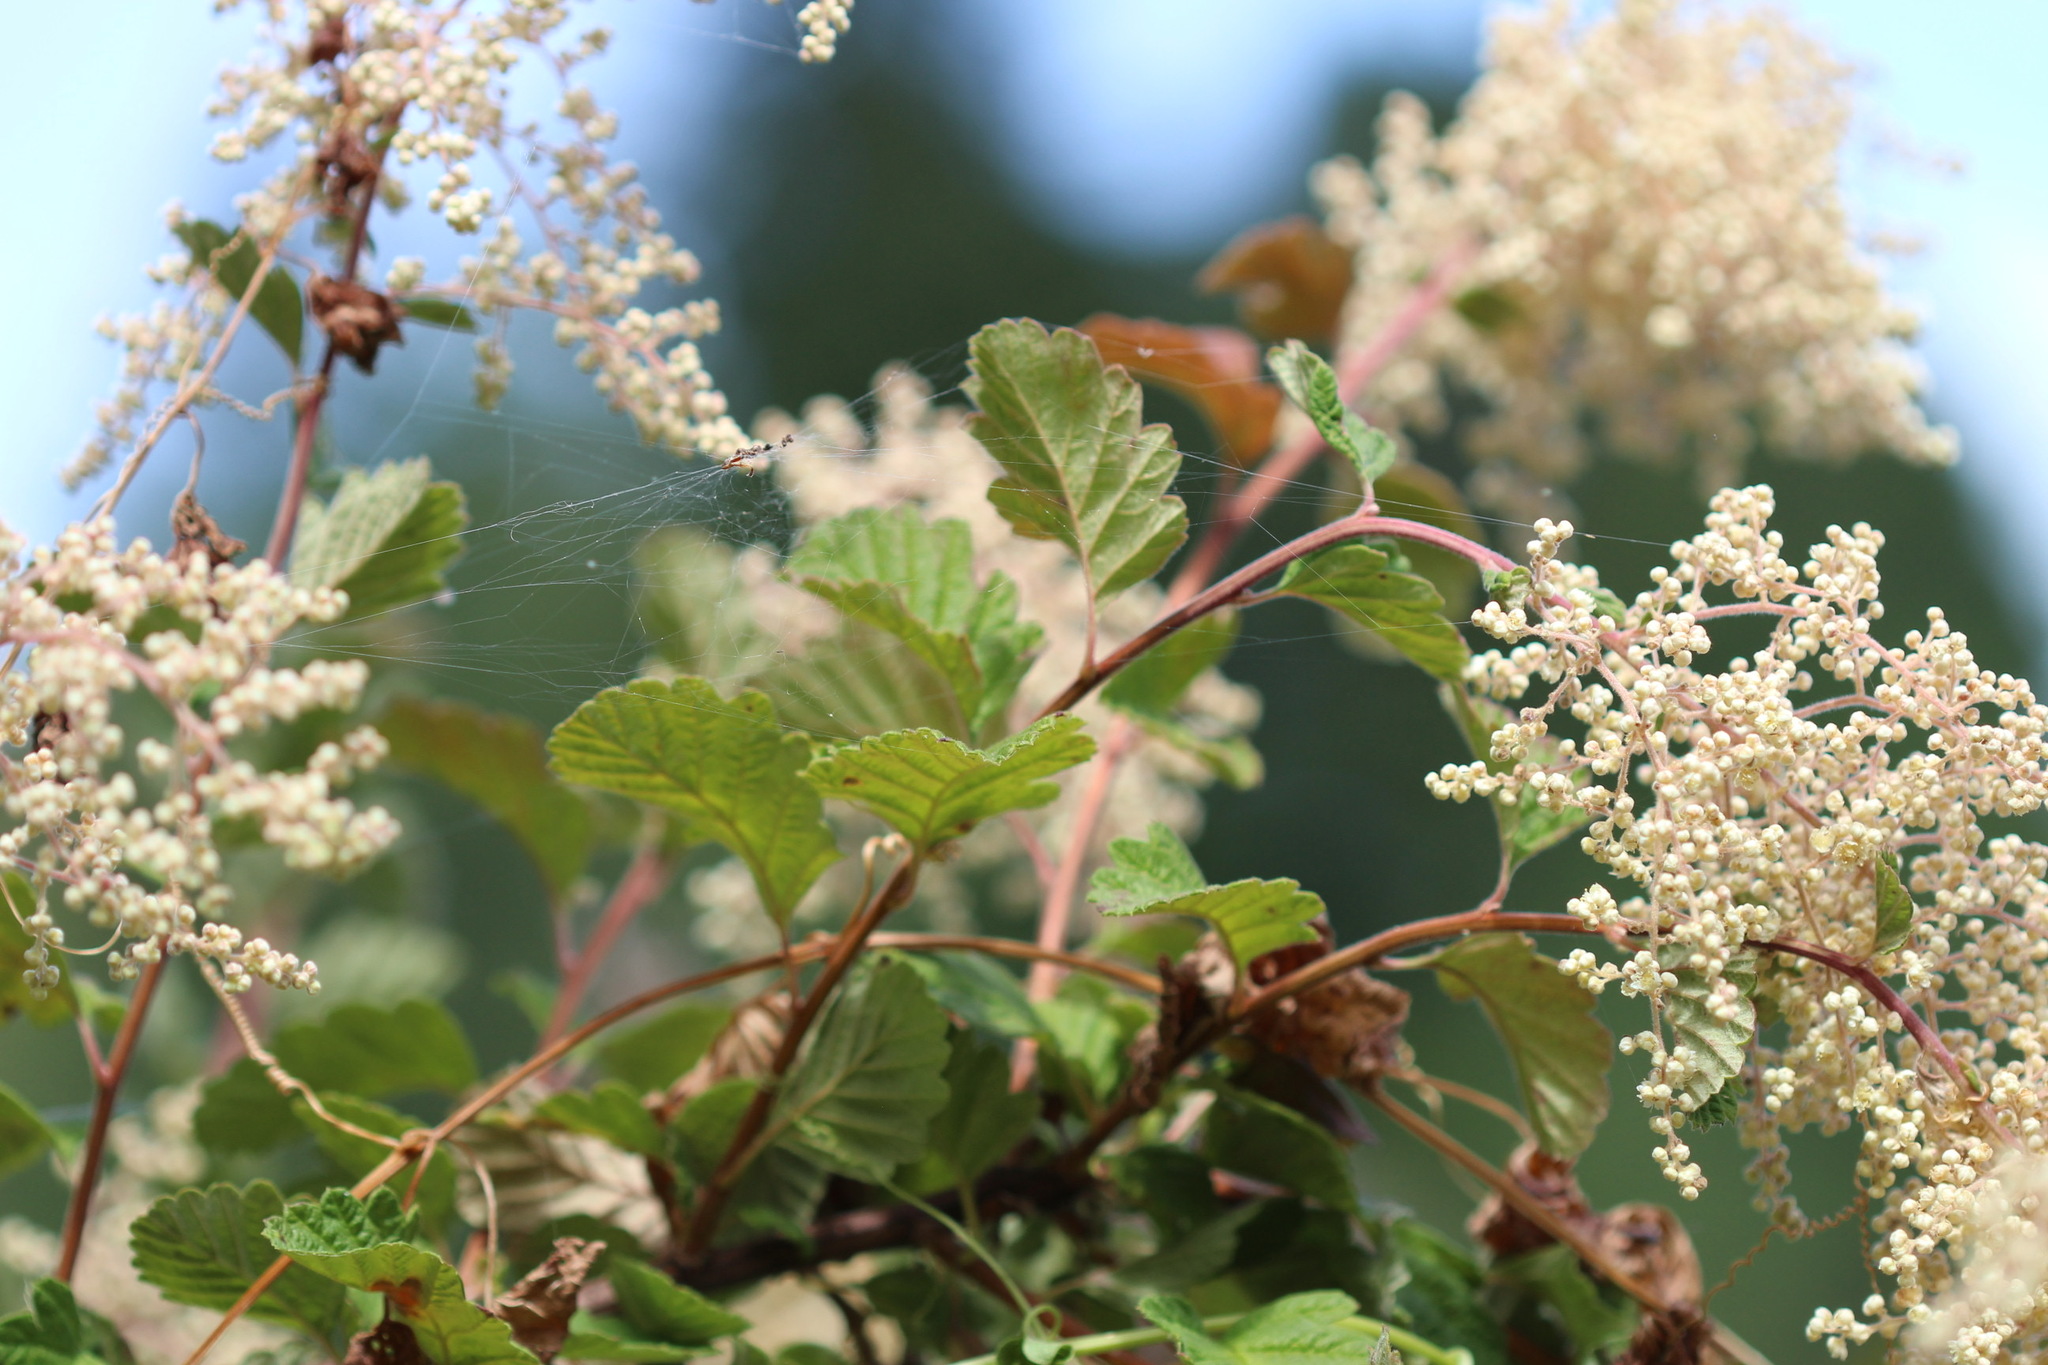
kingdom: Plantae
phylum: Tracheophyta
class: Magnoliopsida
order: Rosales
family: Rosaceae
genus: Holodiscus
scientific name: Holodiscus discolor
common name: Oceanspray
